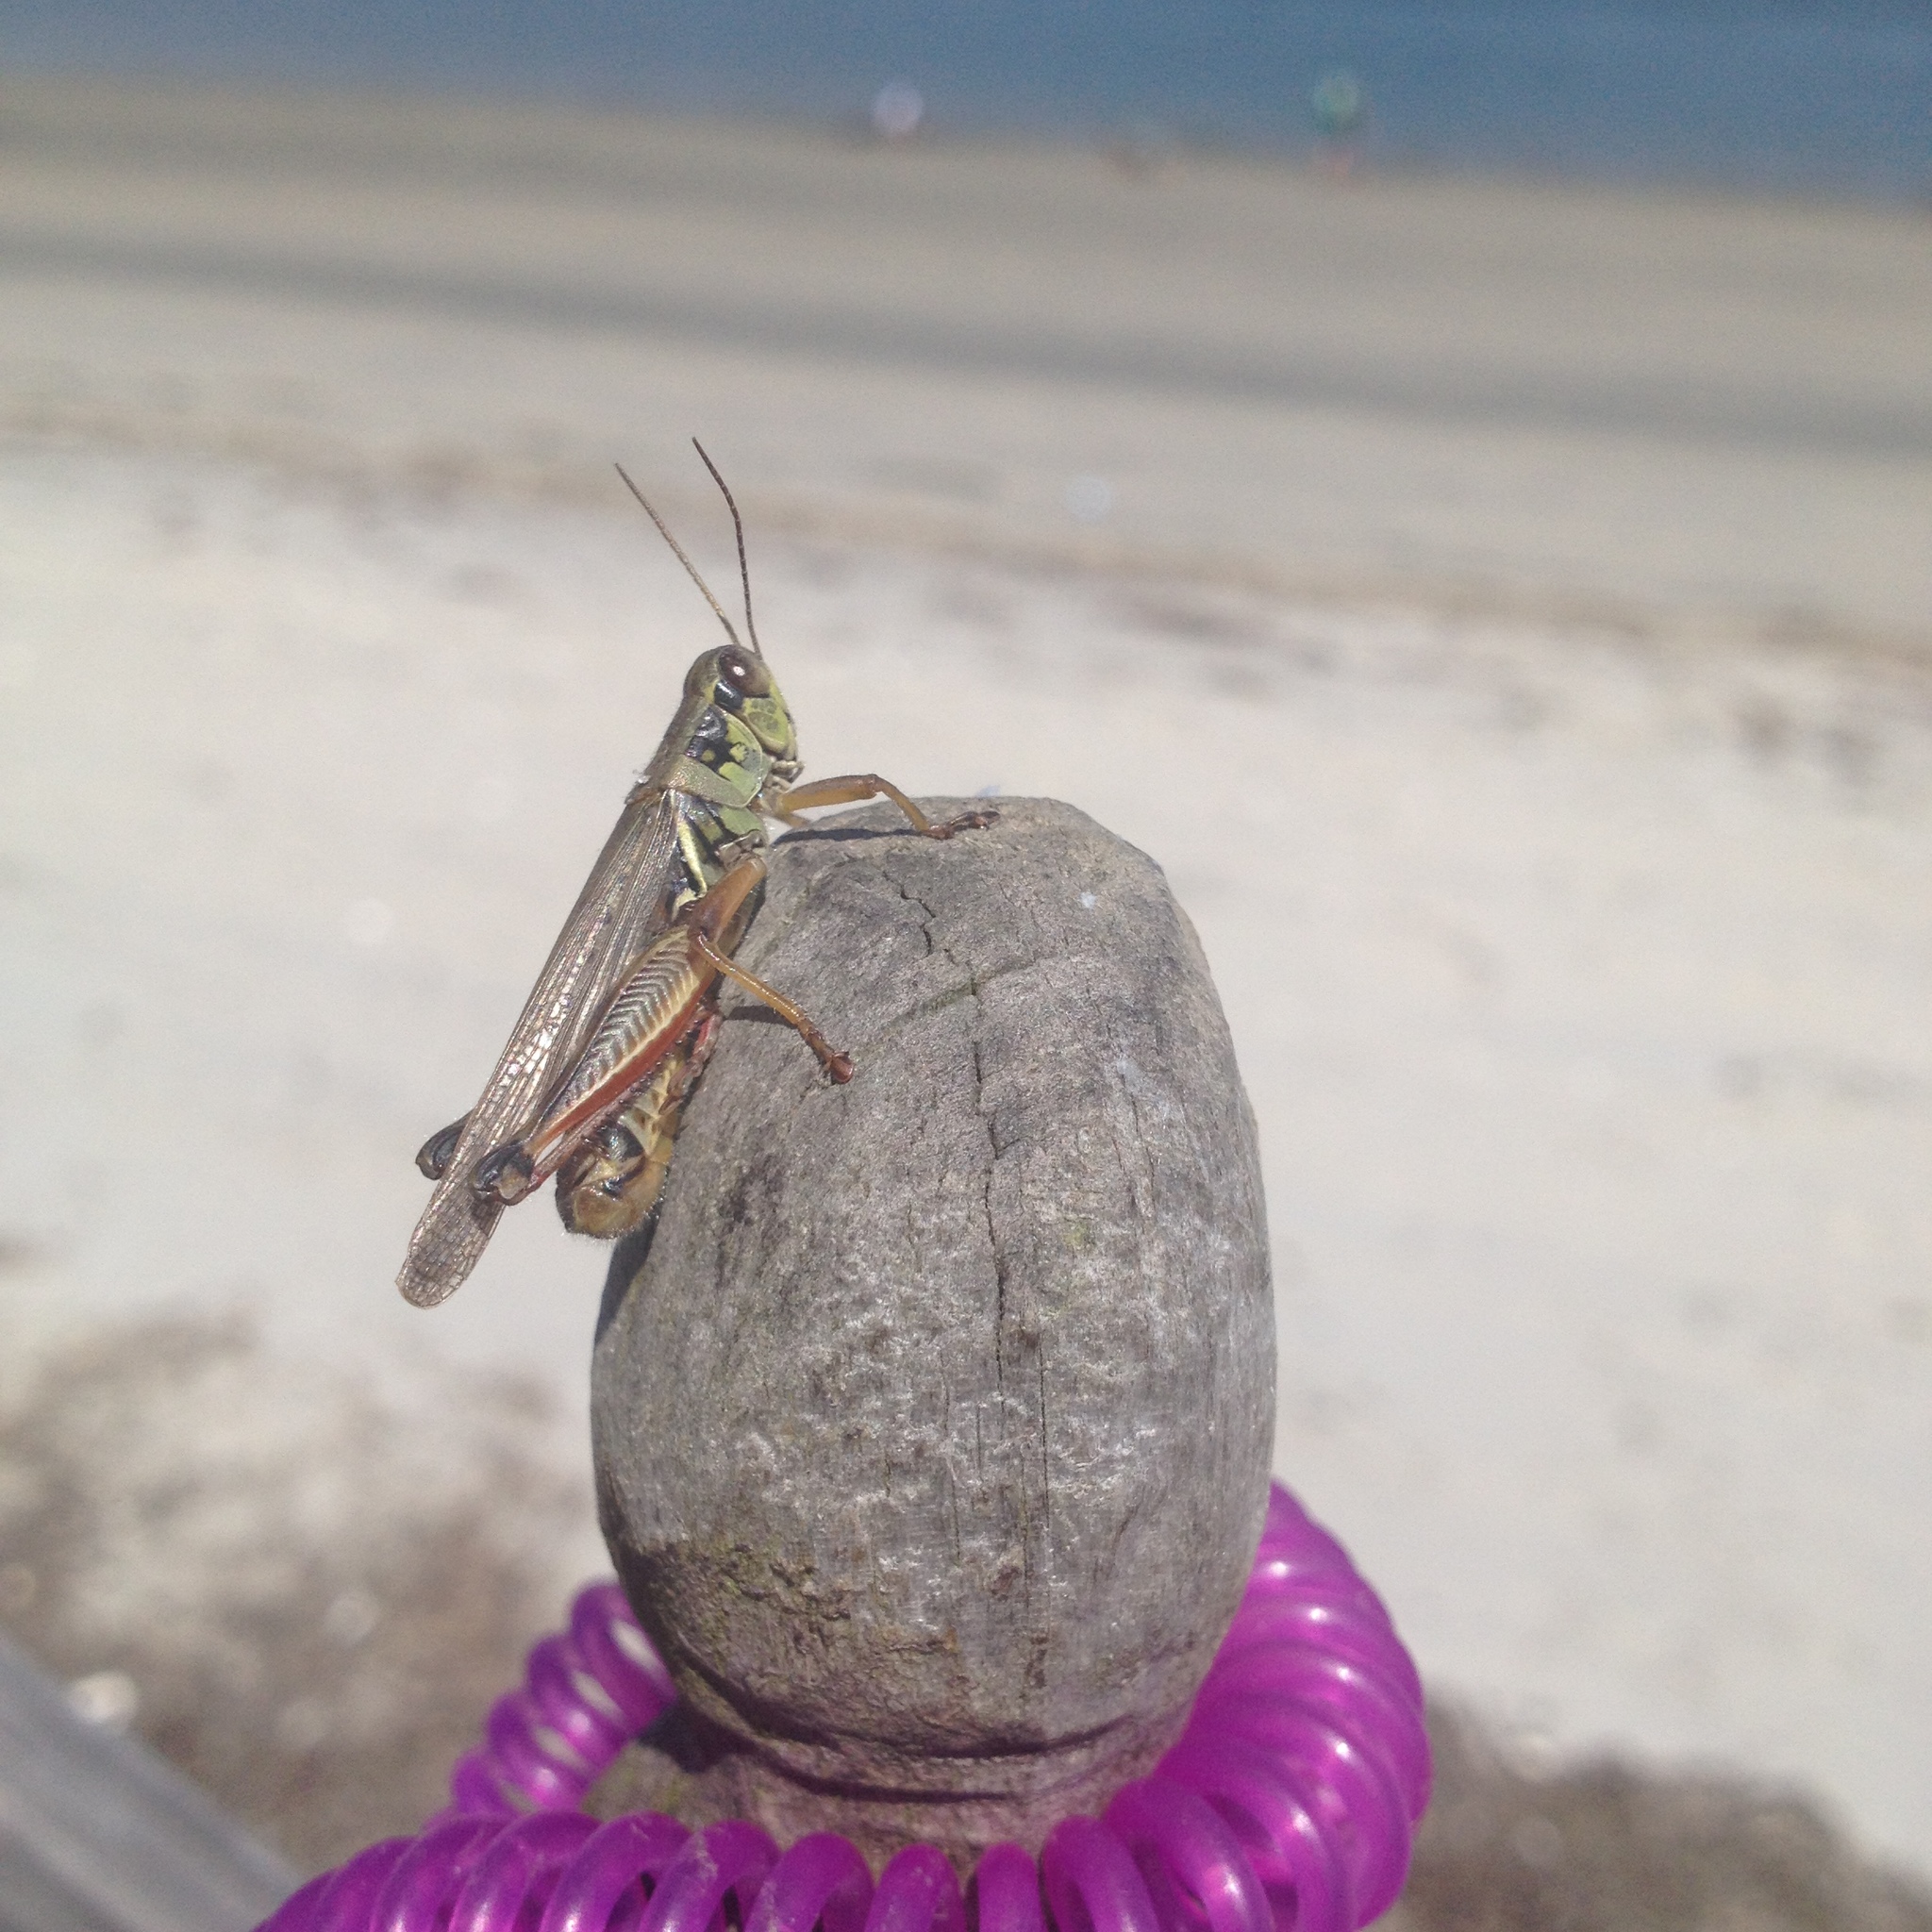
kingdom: Animalia
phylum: Arthropoda
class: Insecta
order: Orthoptera
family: Acrididae
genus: Melanoplus
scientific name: Melanoplus femurrubrum
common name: Red-legged grasshopper
